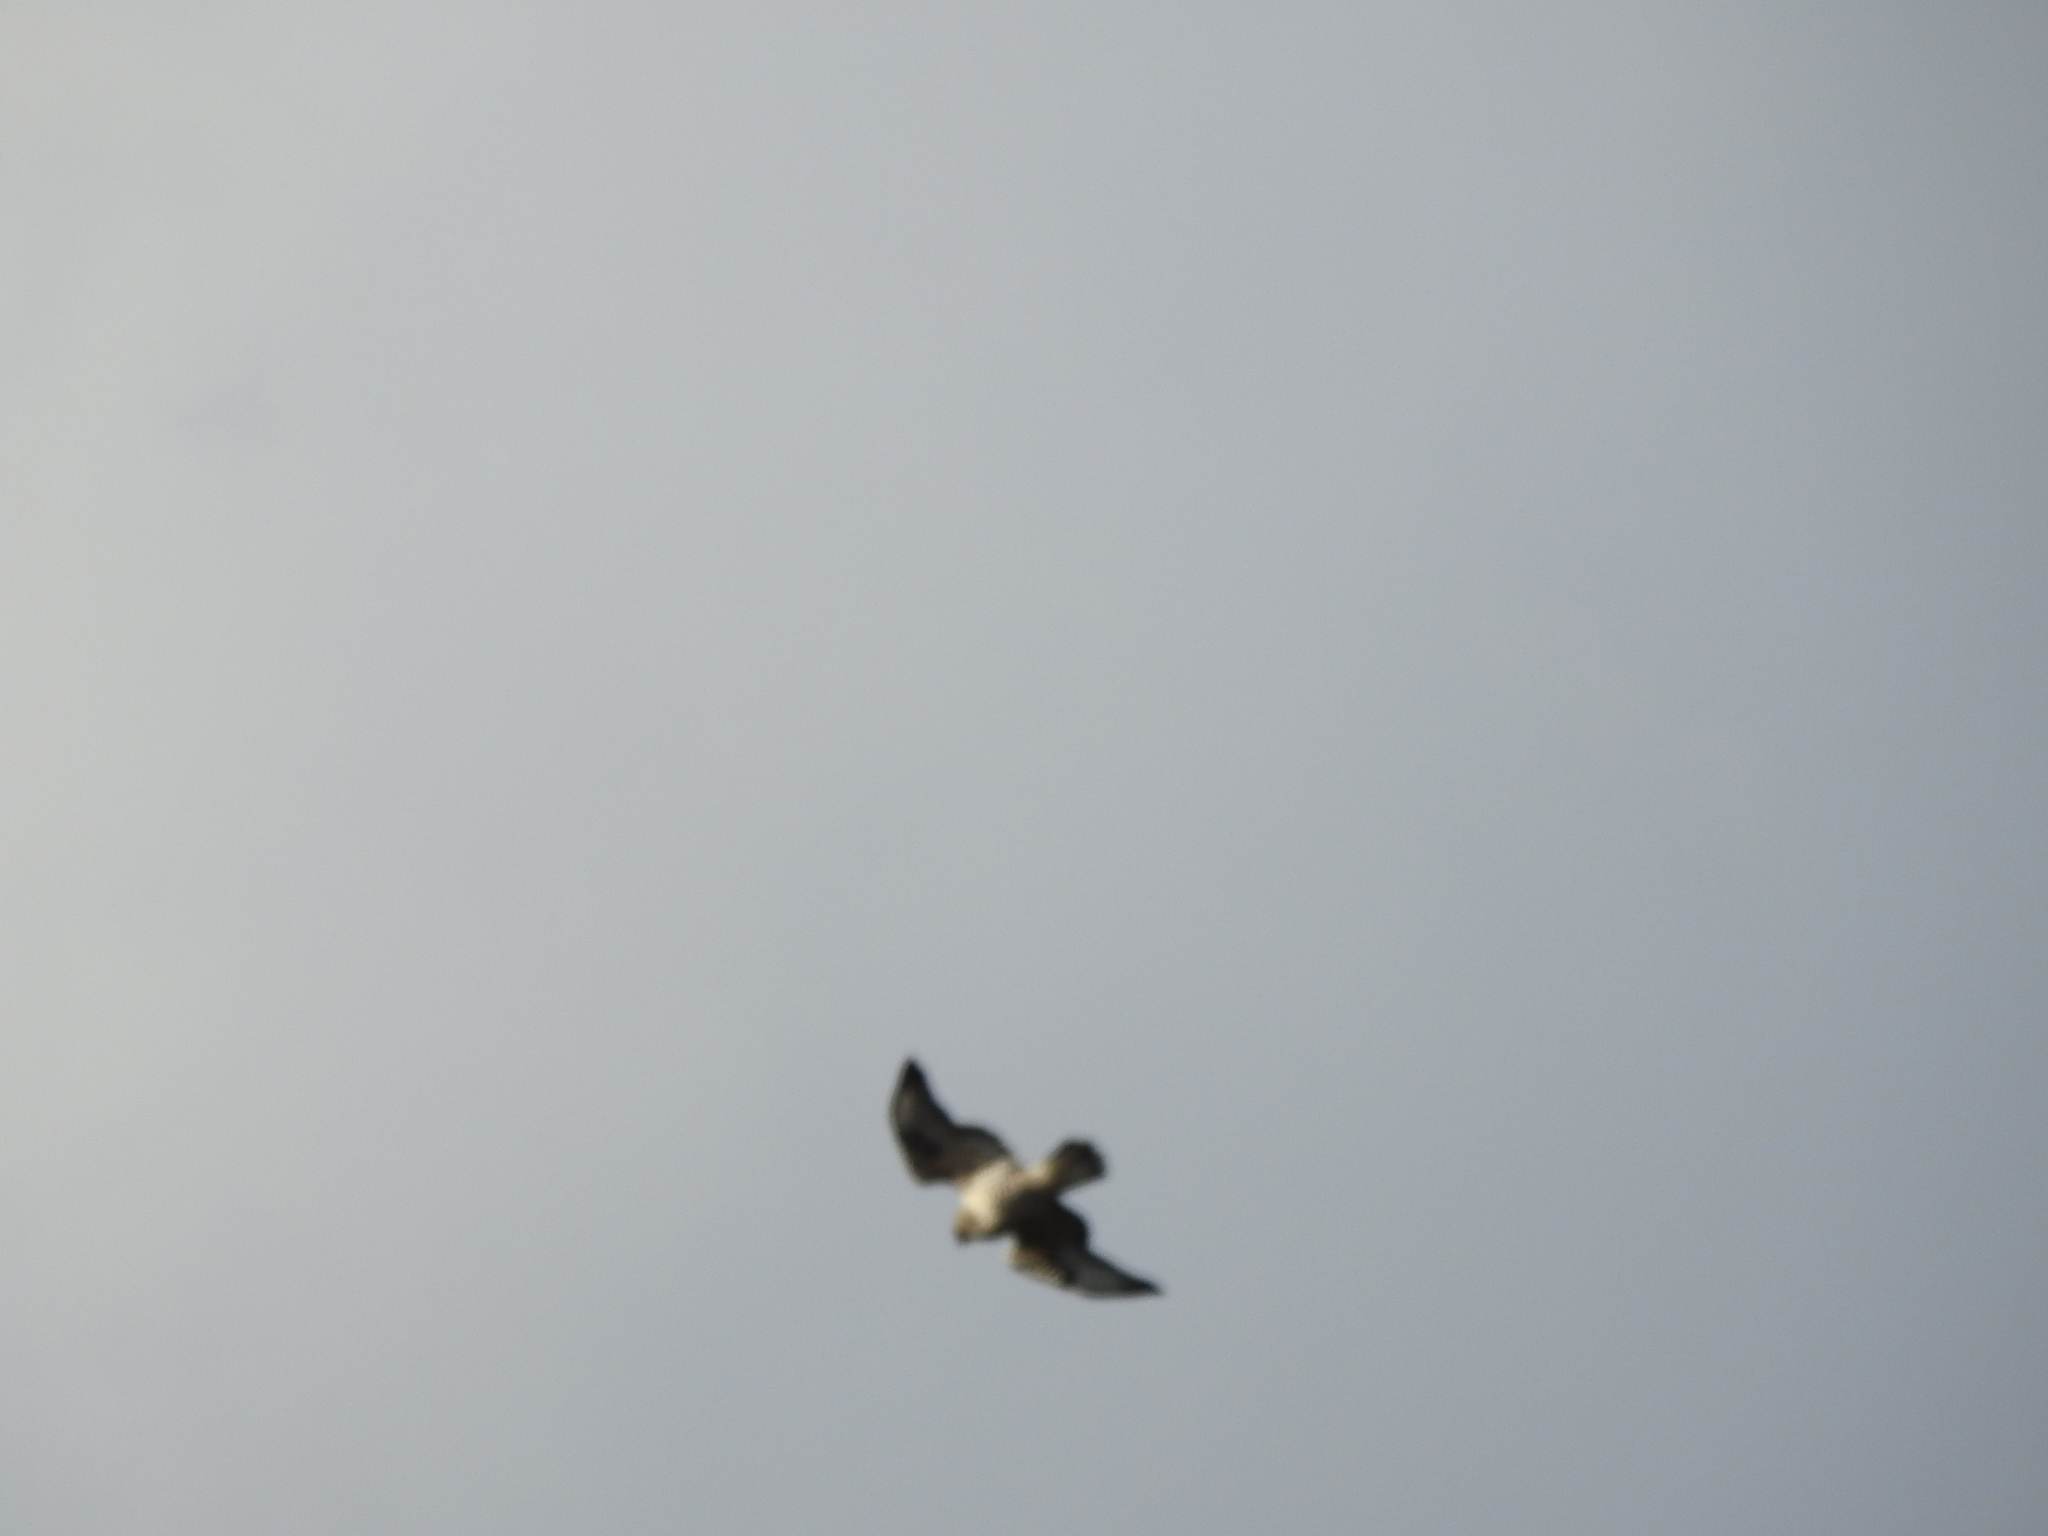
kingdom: Animalia
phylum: Chordata
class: Aves
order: Accipitriformes
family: Accipitridae
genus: Buteo
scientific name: Buteo lagopus
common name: Rough-legged buzzard
